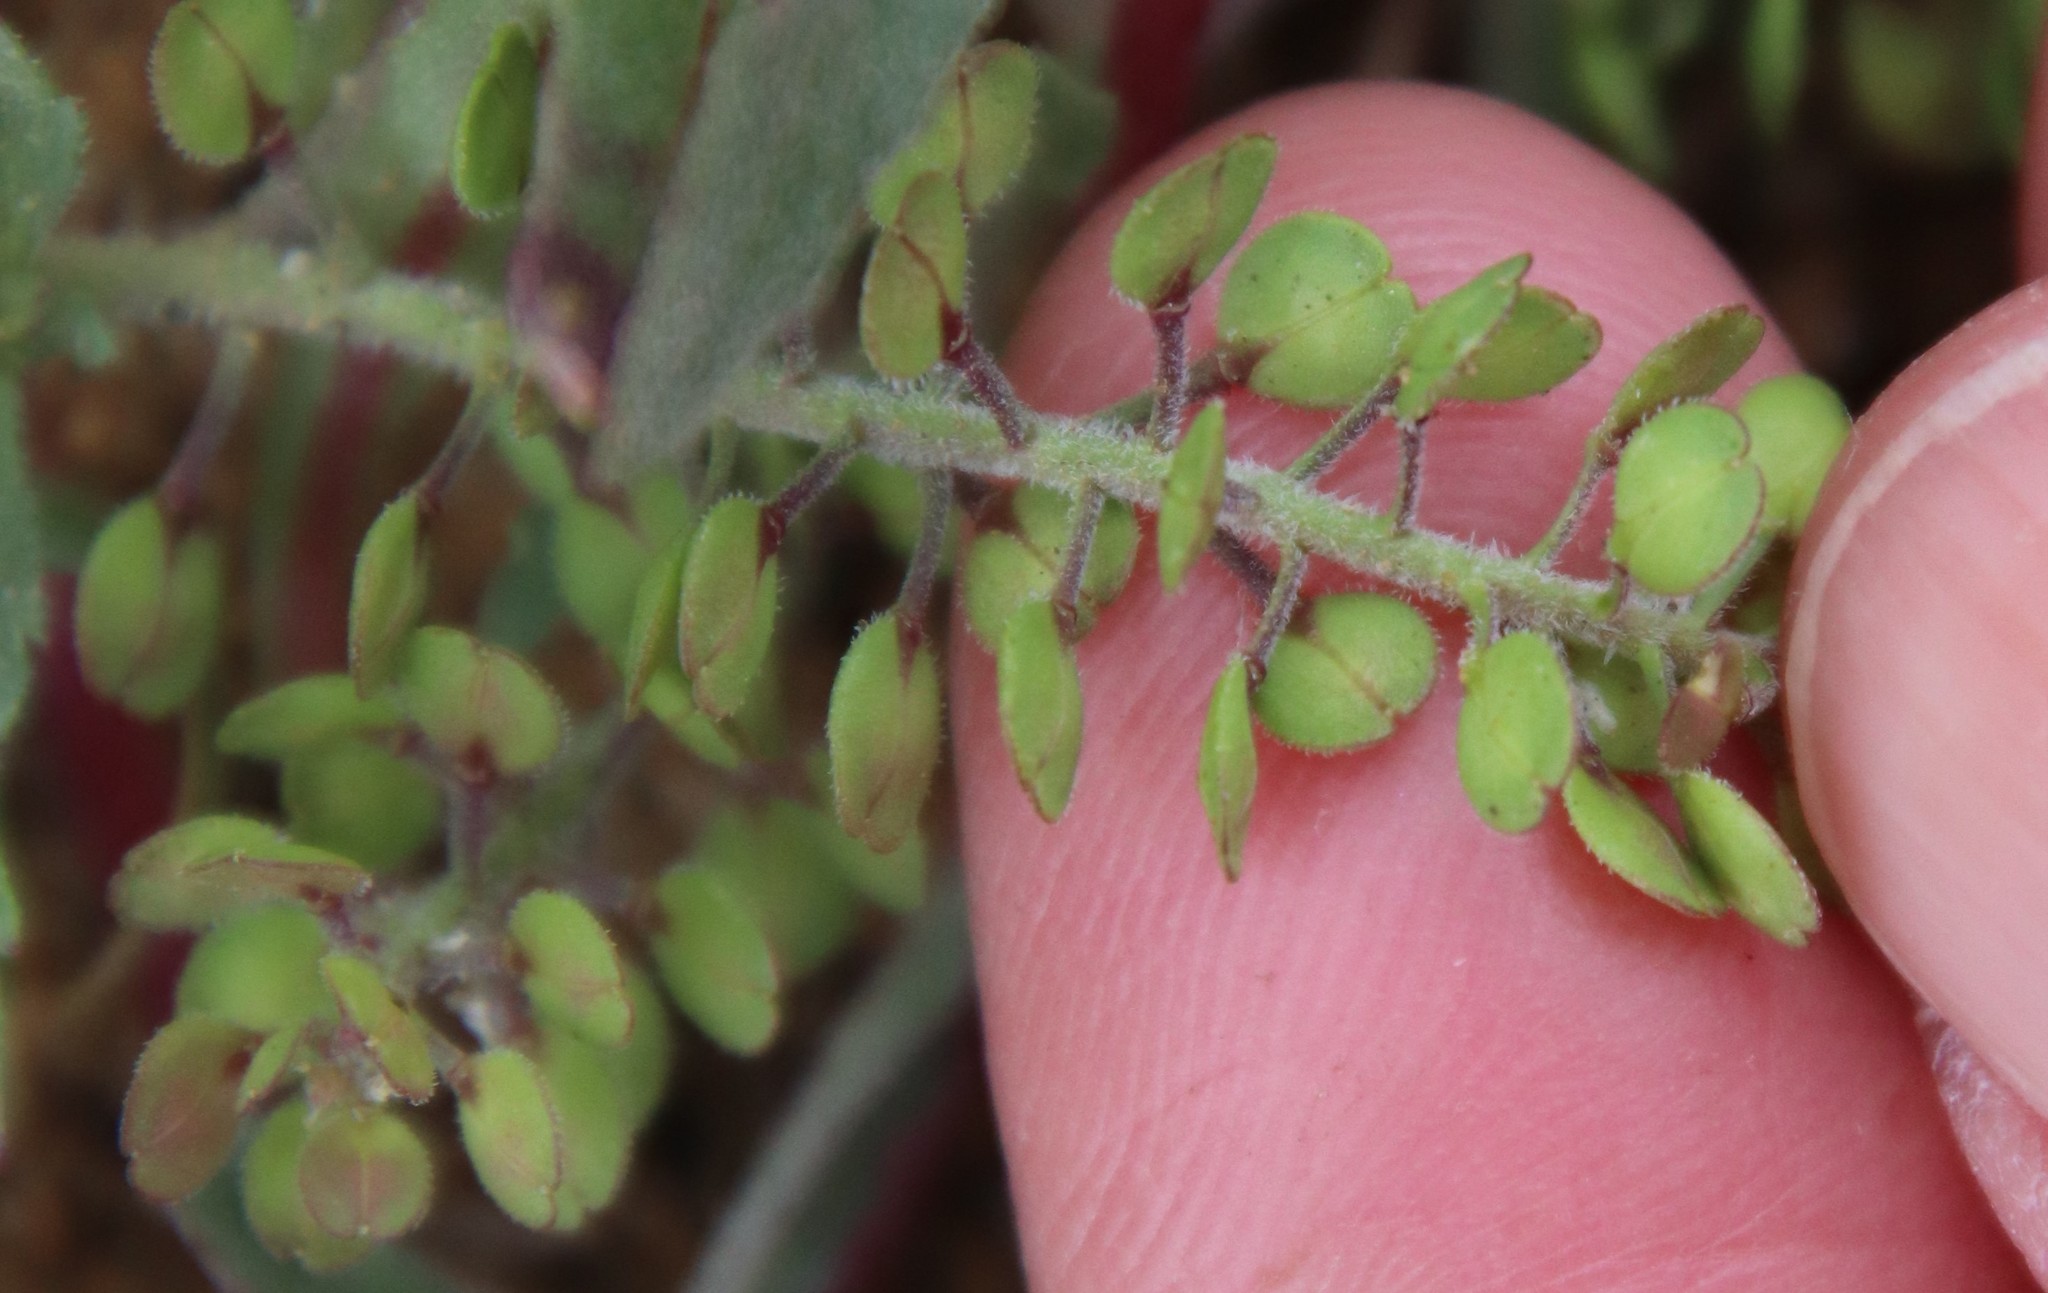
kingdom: Plantae
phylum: Tracheophyta
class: Magnoliopsida
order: Brassicales
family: Brassicaceae
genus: Lepidium
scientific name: Lepidium lasiocarpum
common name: Hairy-pod pepperwort
